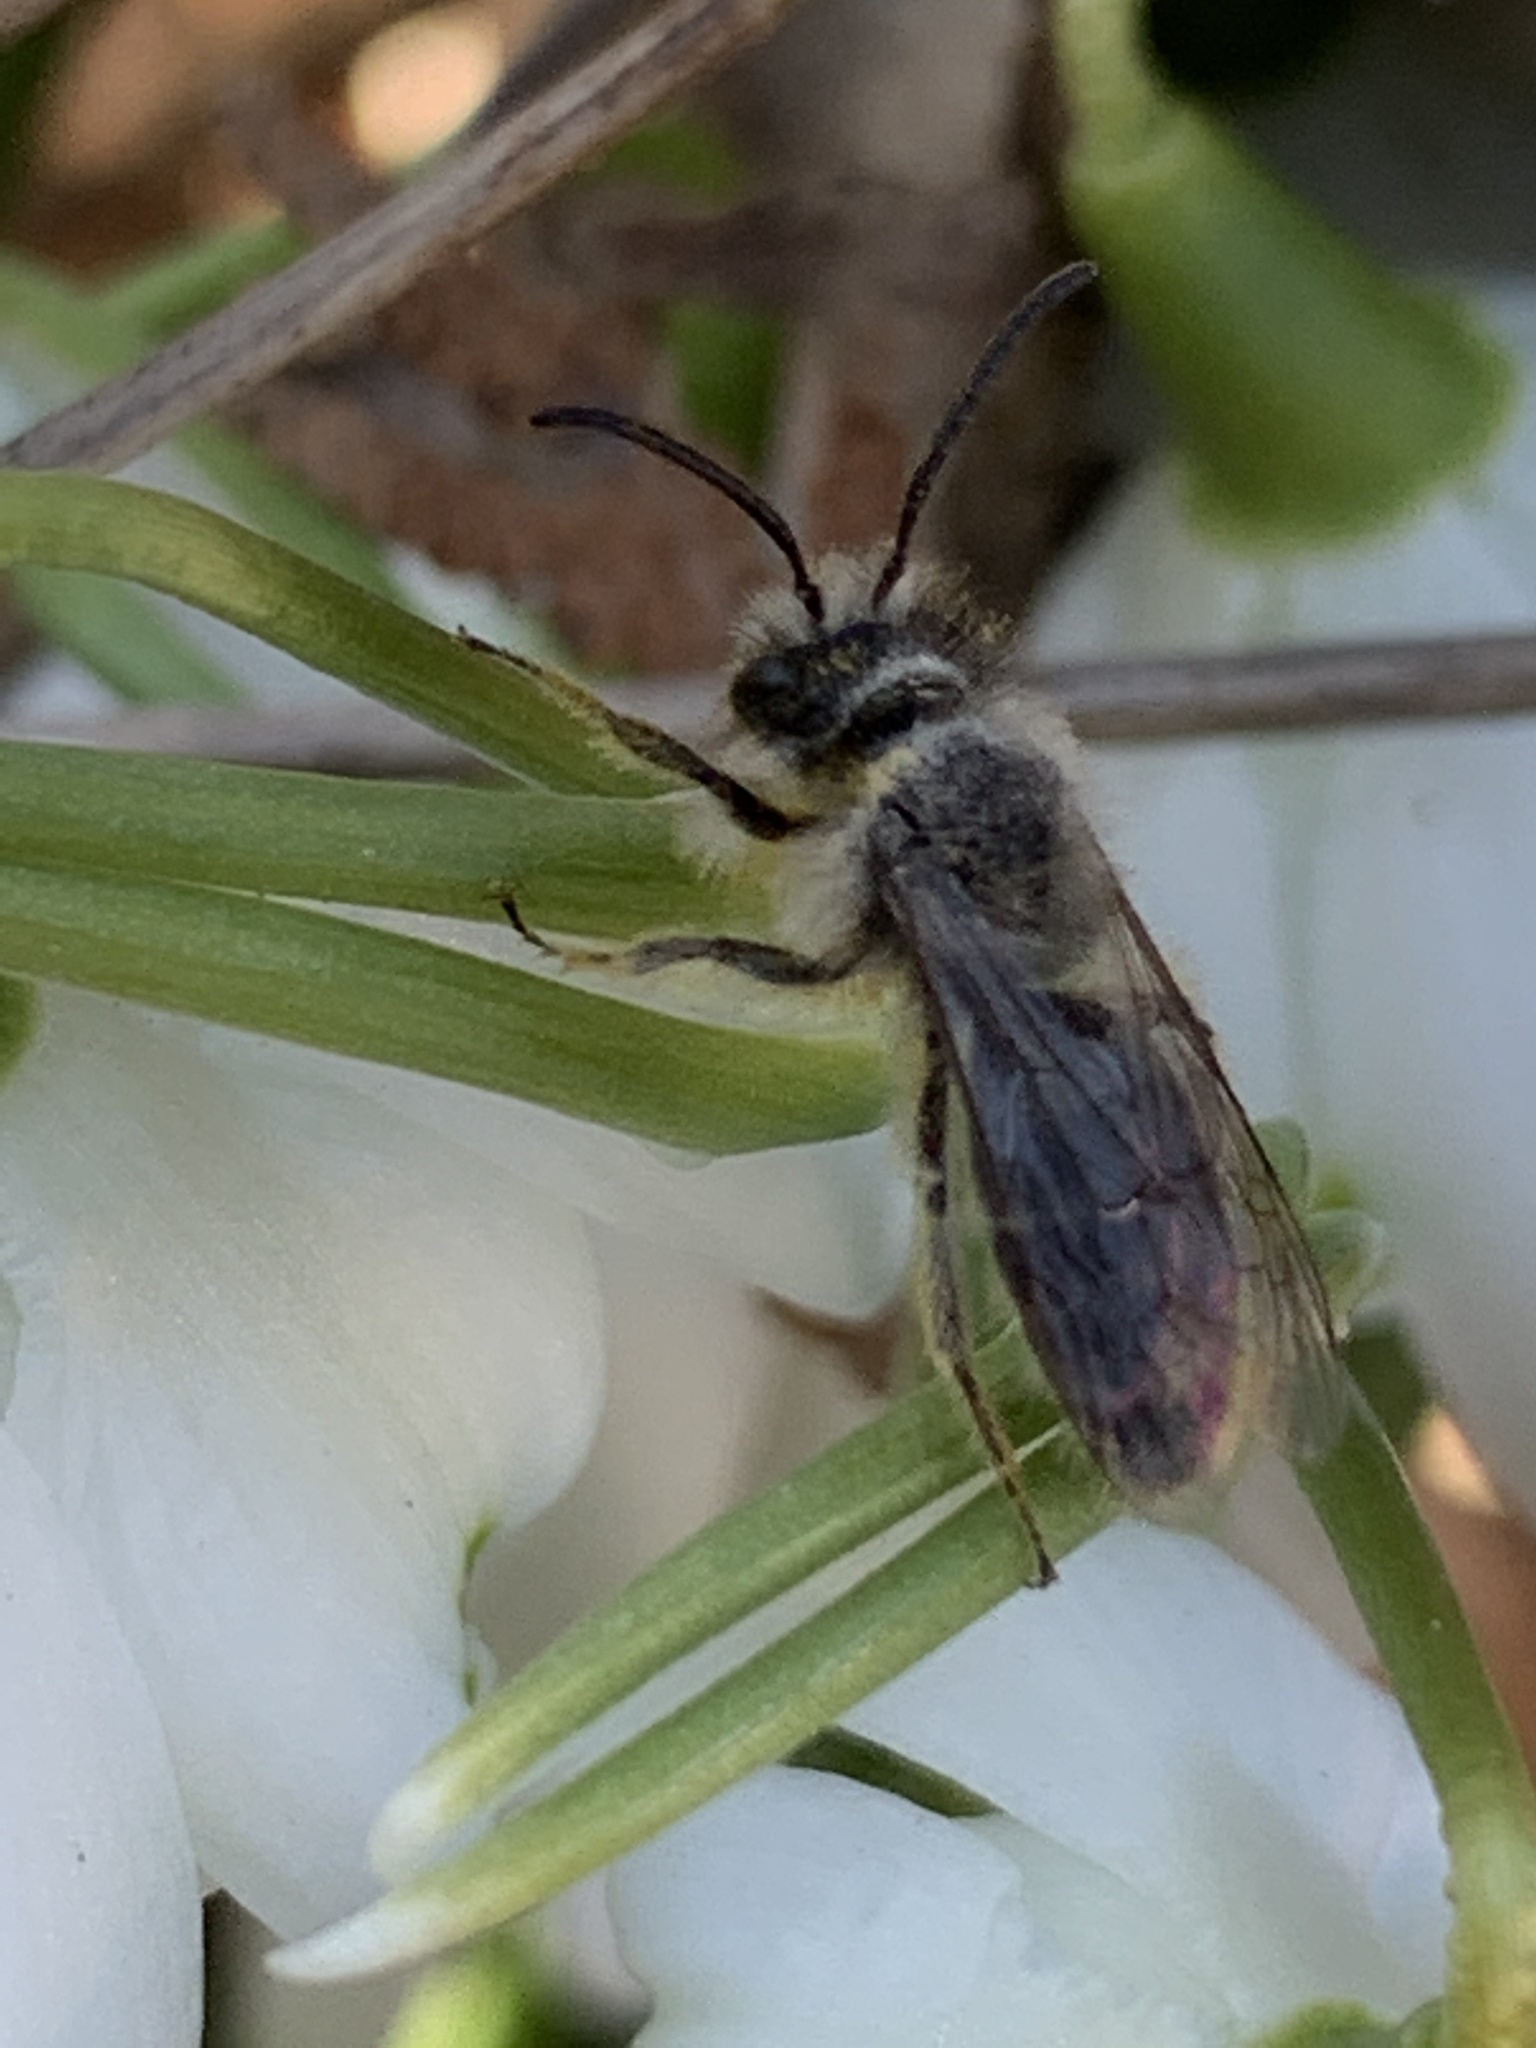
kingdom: Animalia
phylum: Arthropoda
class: Insecta
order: Hymenoptera
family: Andrenidae
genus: Andrena
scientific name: Andrena
